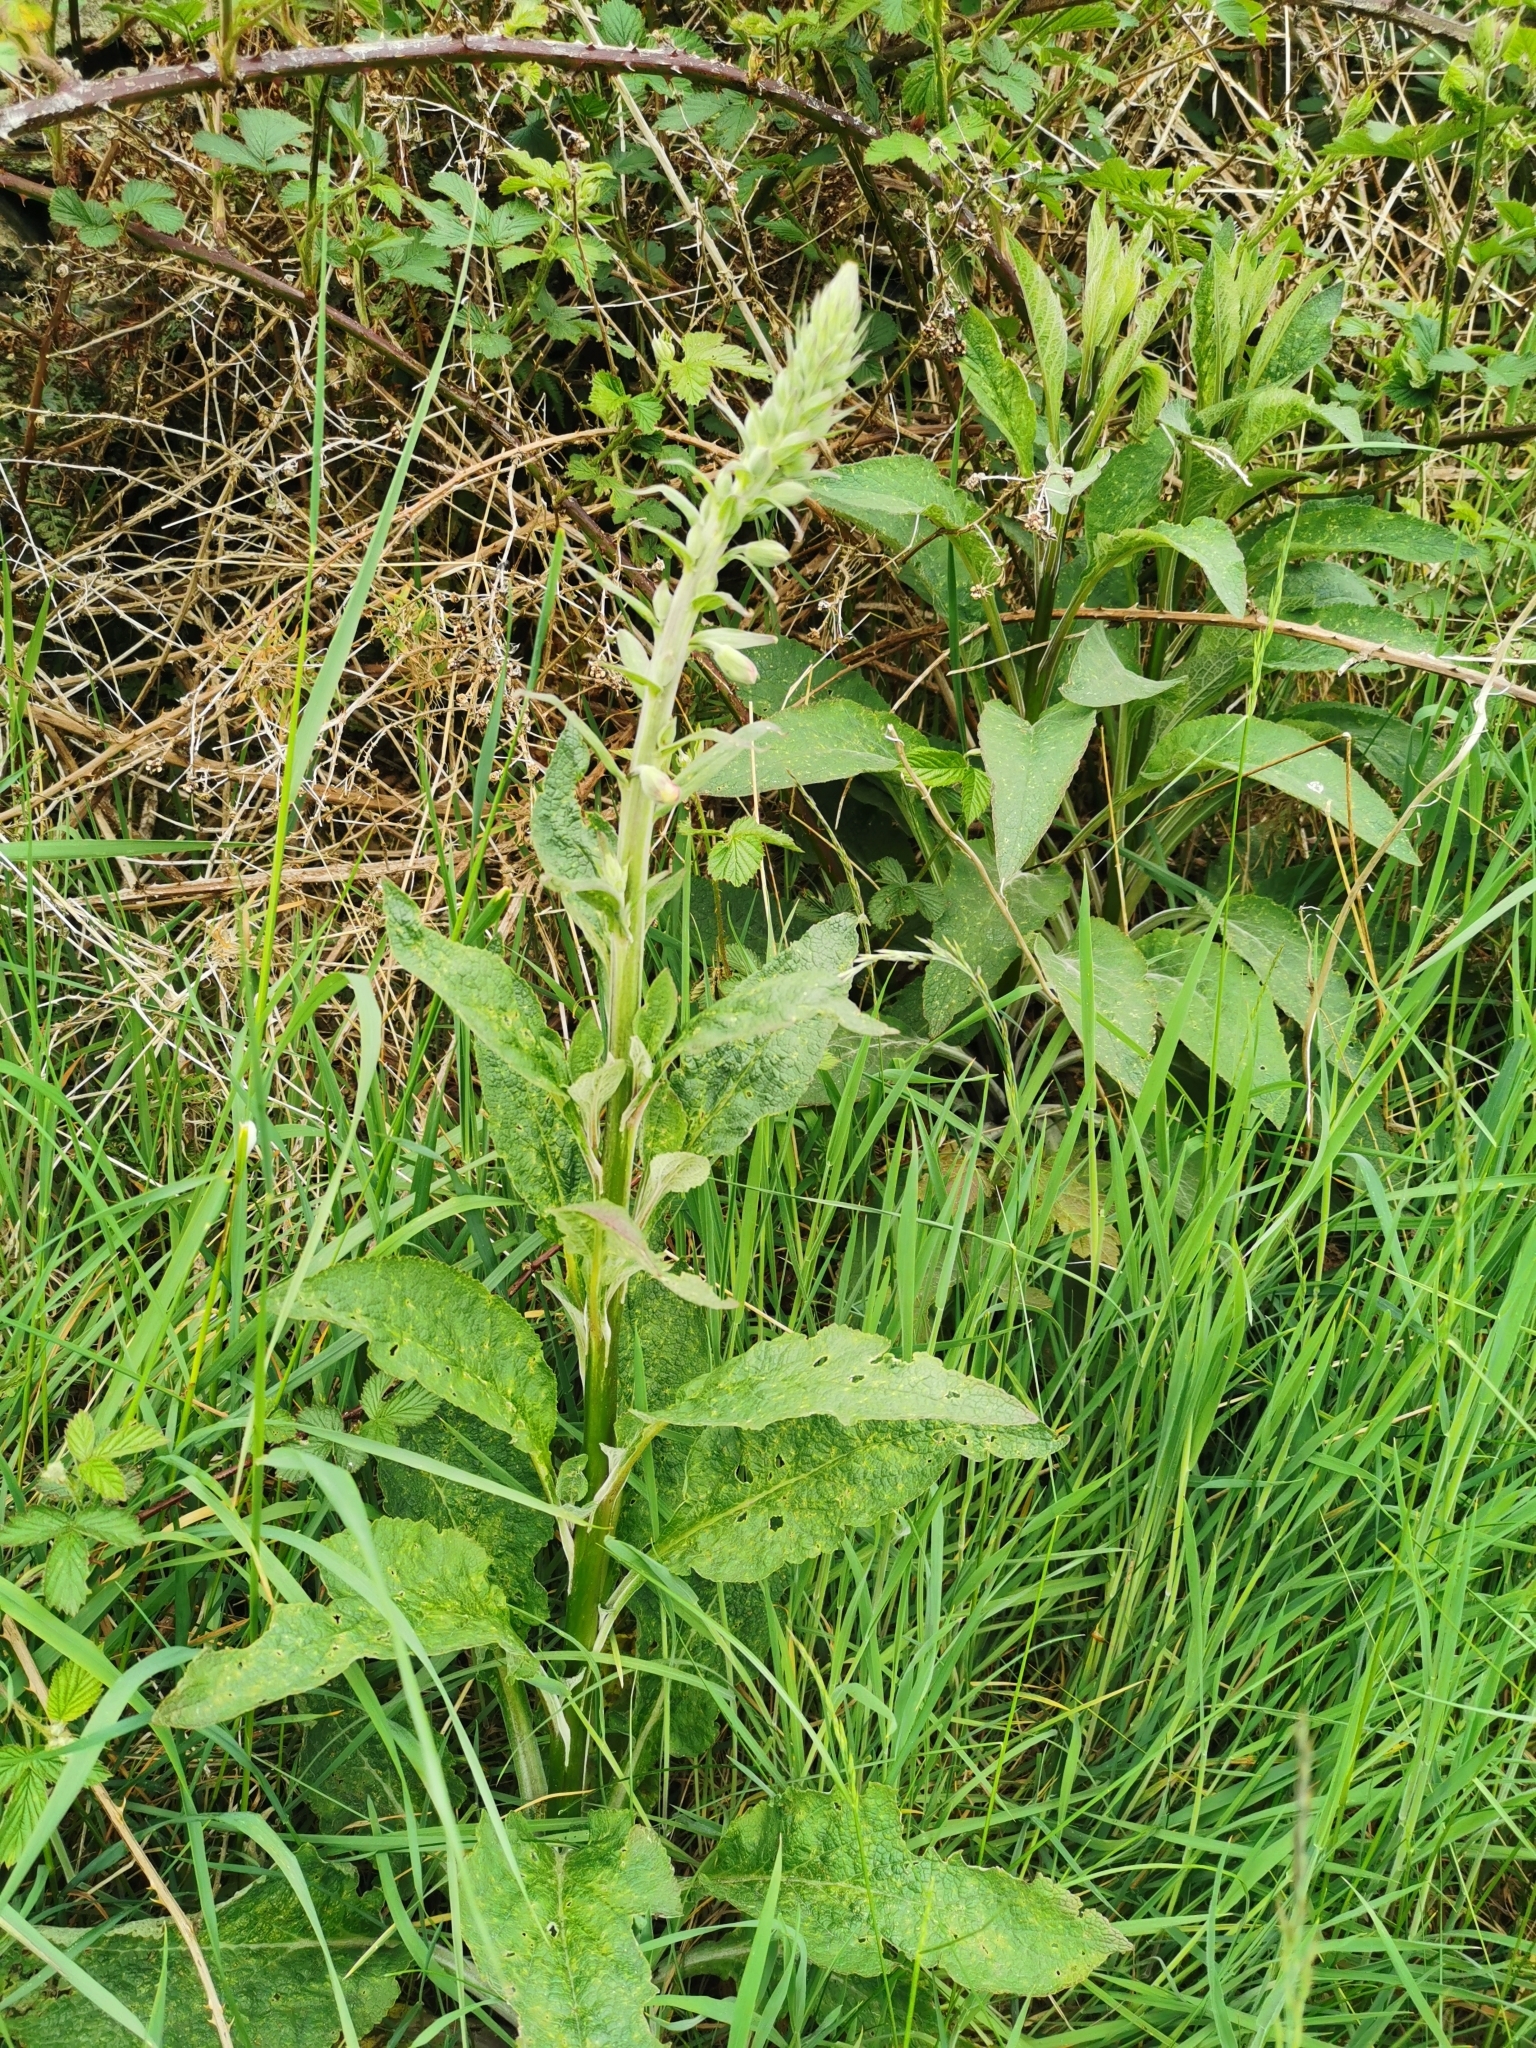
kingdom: Plantae
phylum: Tracheophyta
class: Magnoliopsida
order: Lamiales
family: Plantaginaceae
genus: Digitalis
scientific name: Digitalis purpurea
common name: Foxglove
